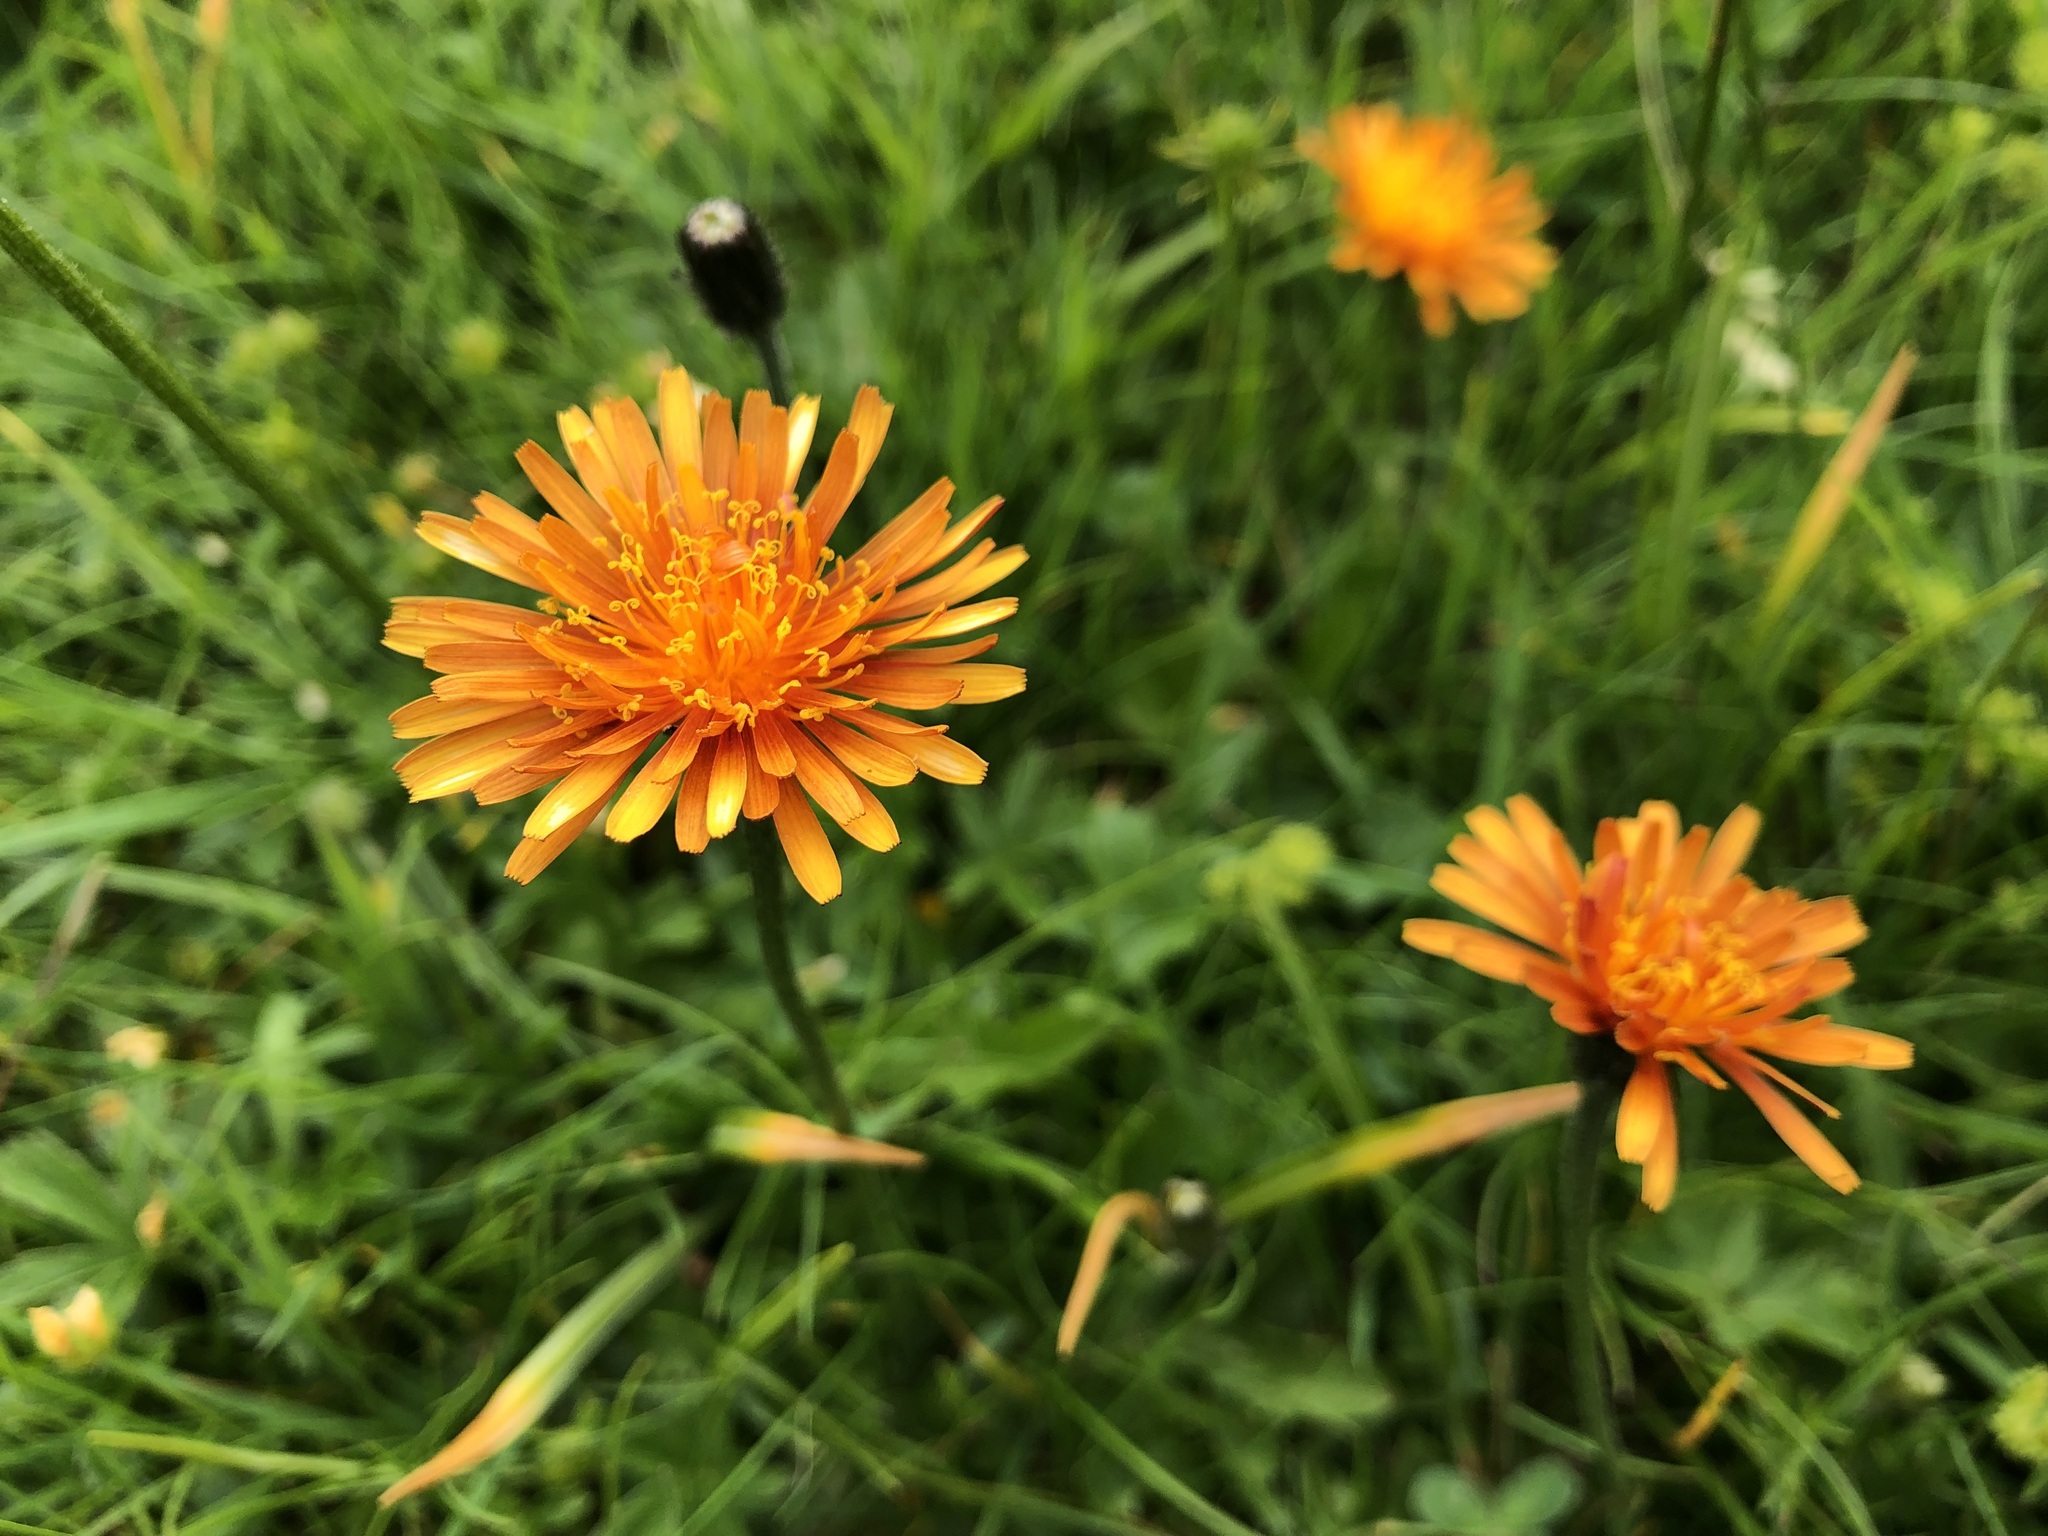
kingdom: Plantae
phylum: Tracheophyta
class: Magnoliopsida
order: Asterales
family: Asteraceae
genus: Crepis
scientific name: Crepis aurea
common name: Golden hawk's-beard
